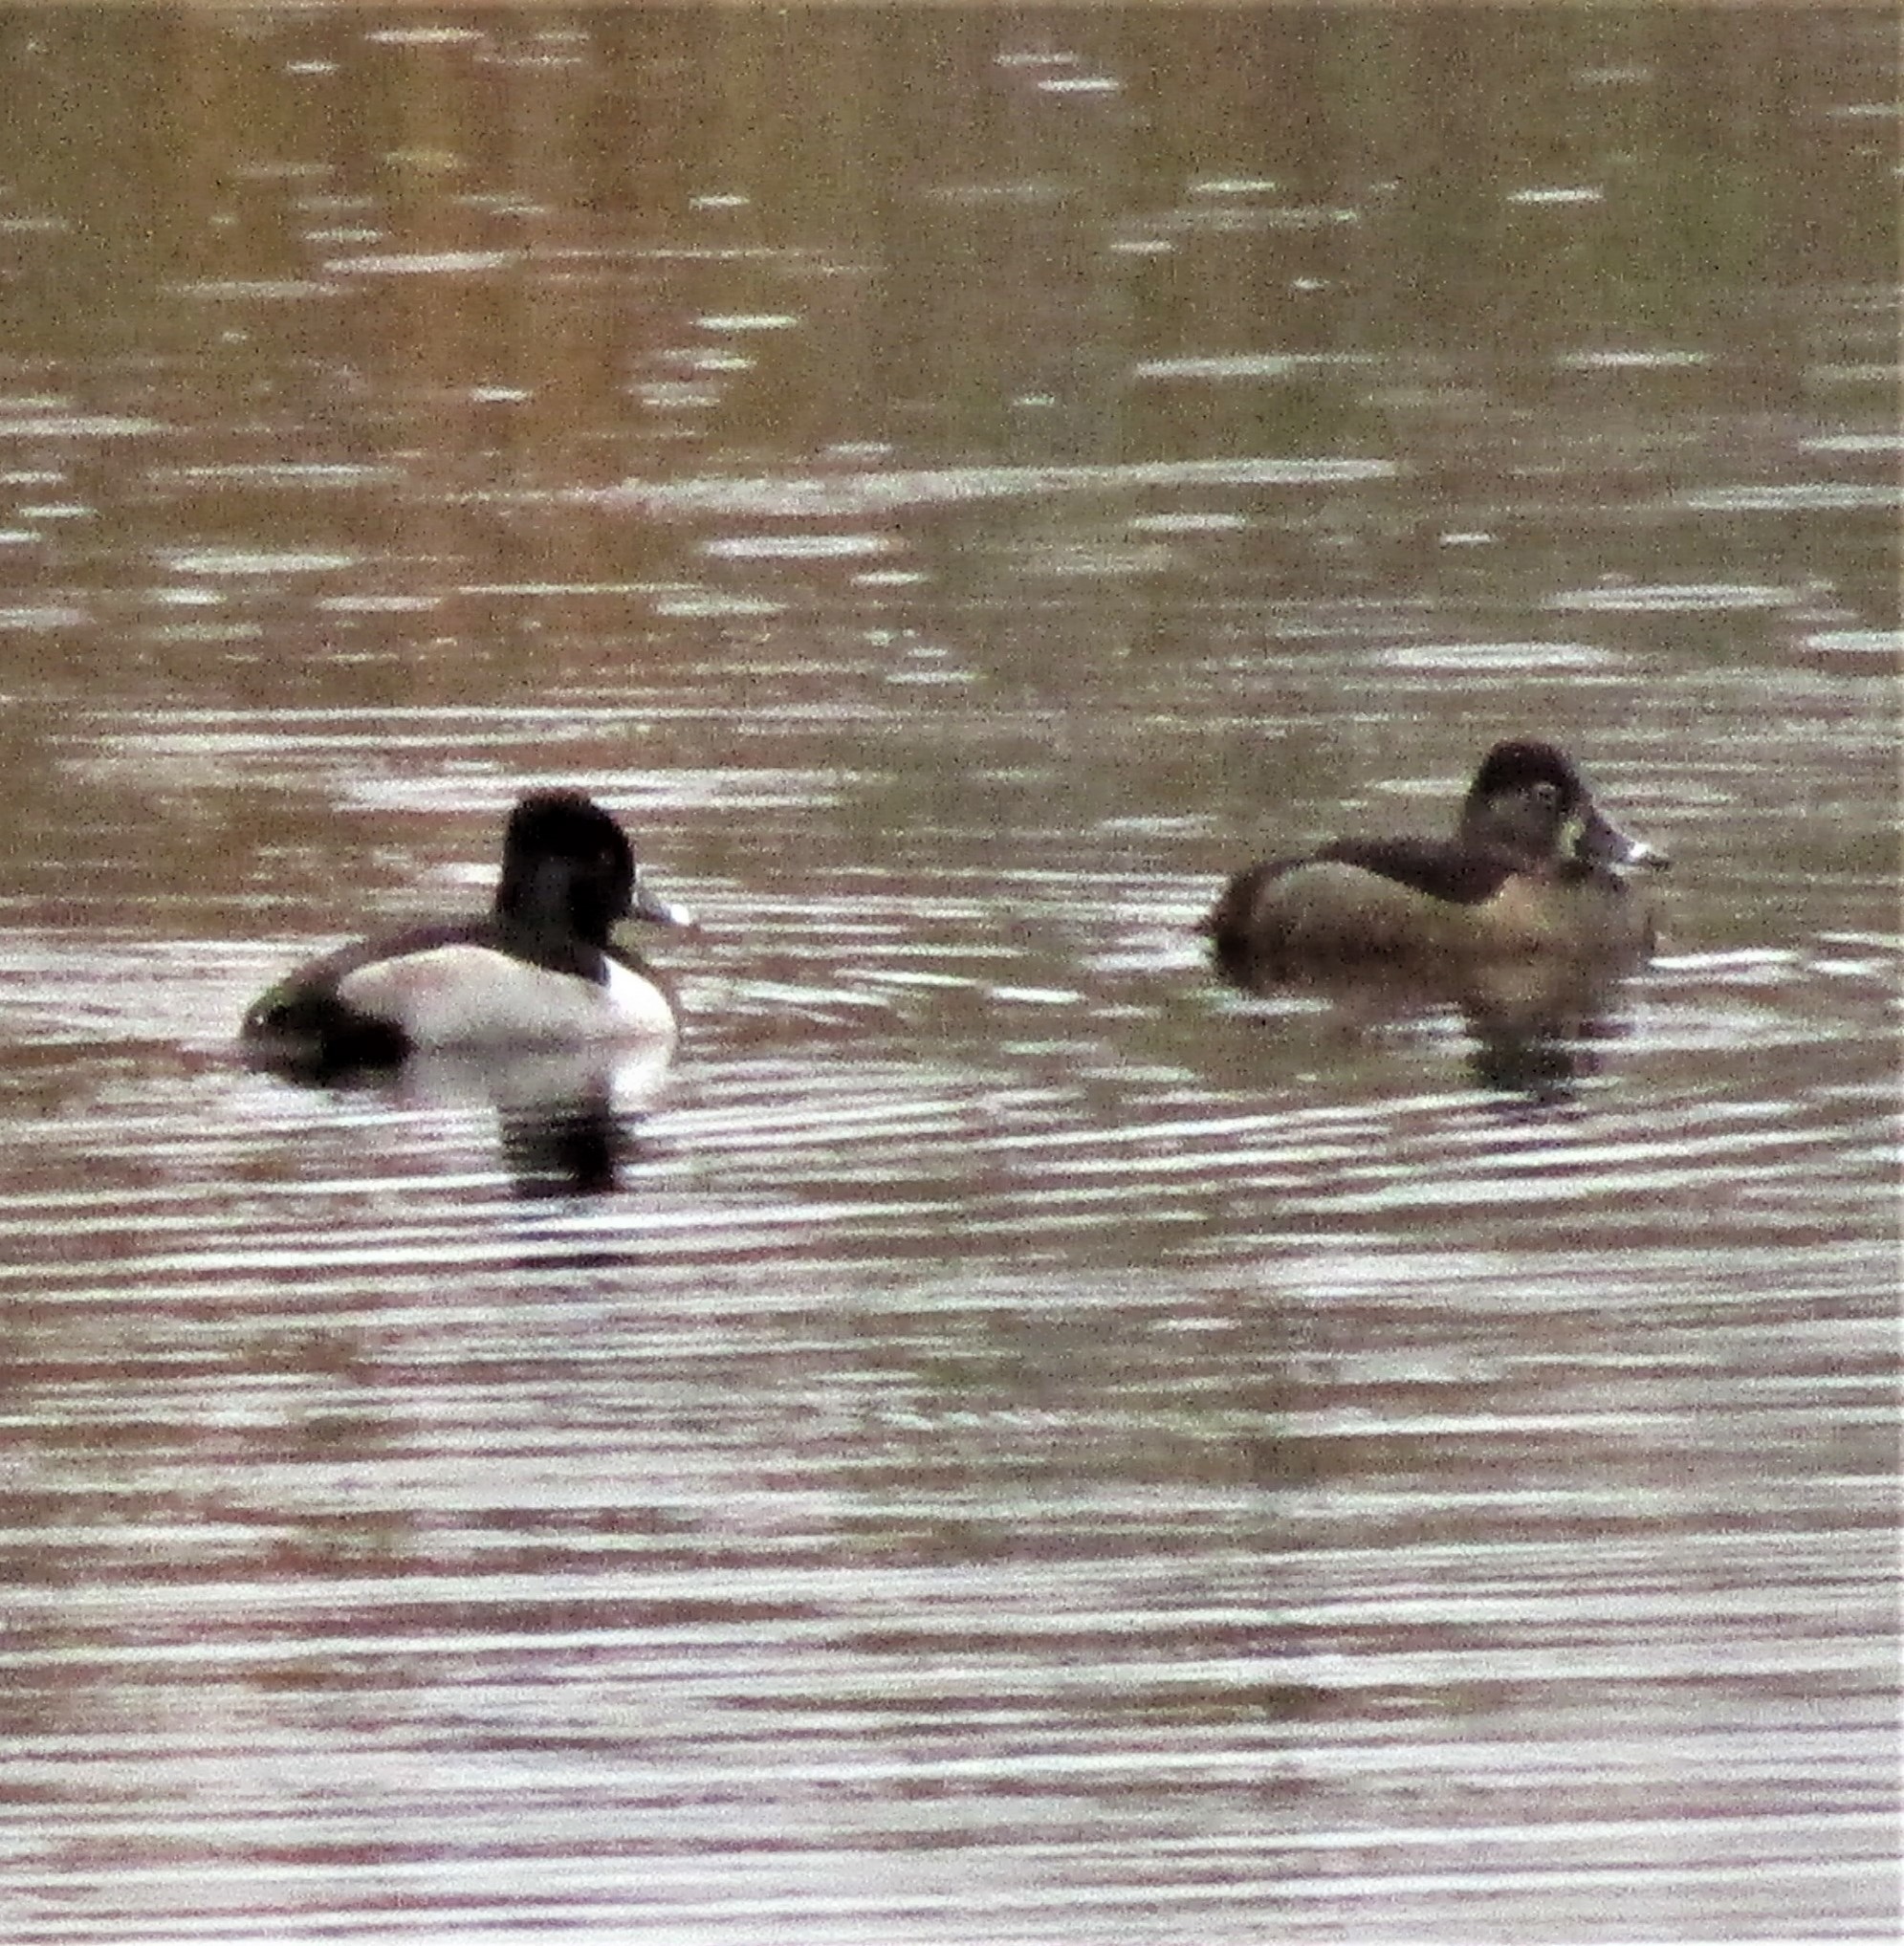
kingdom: Animalia
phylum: Chordata
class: Aves
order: Anseriformes
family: Anatidae
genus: Aythya
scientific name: Aythya collaris
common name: Ring-necked duck
